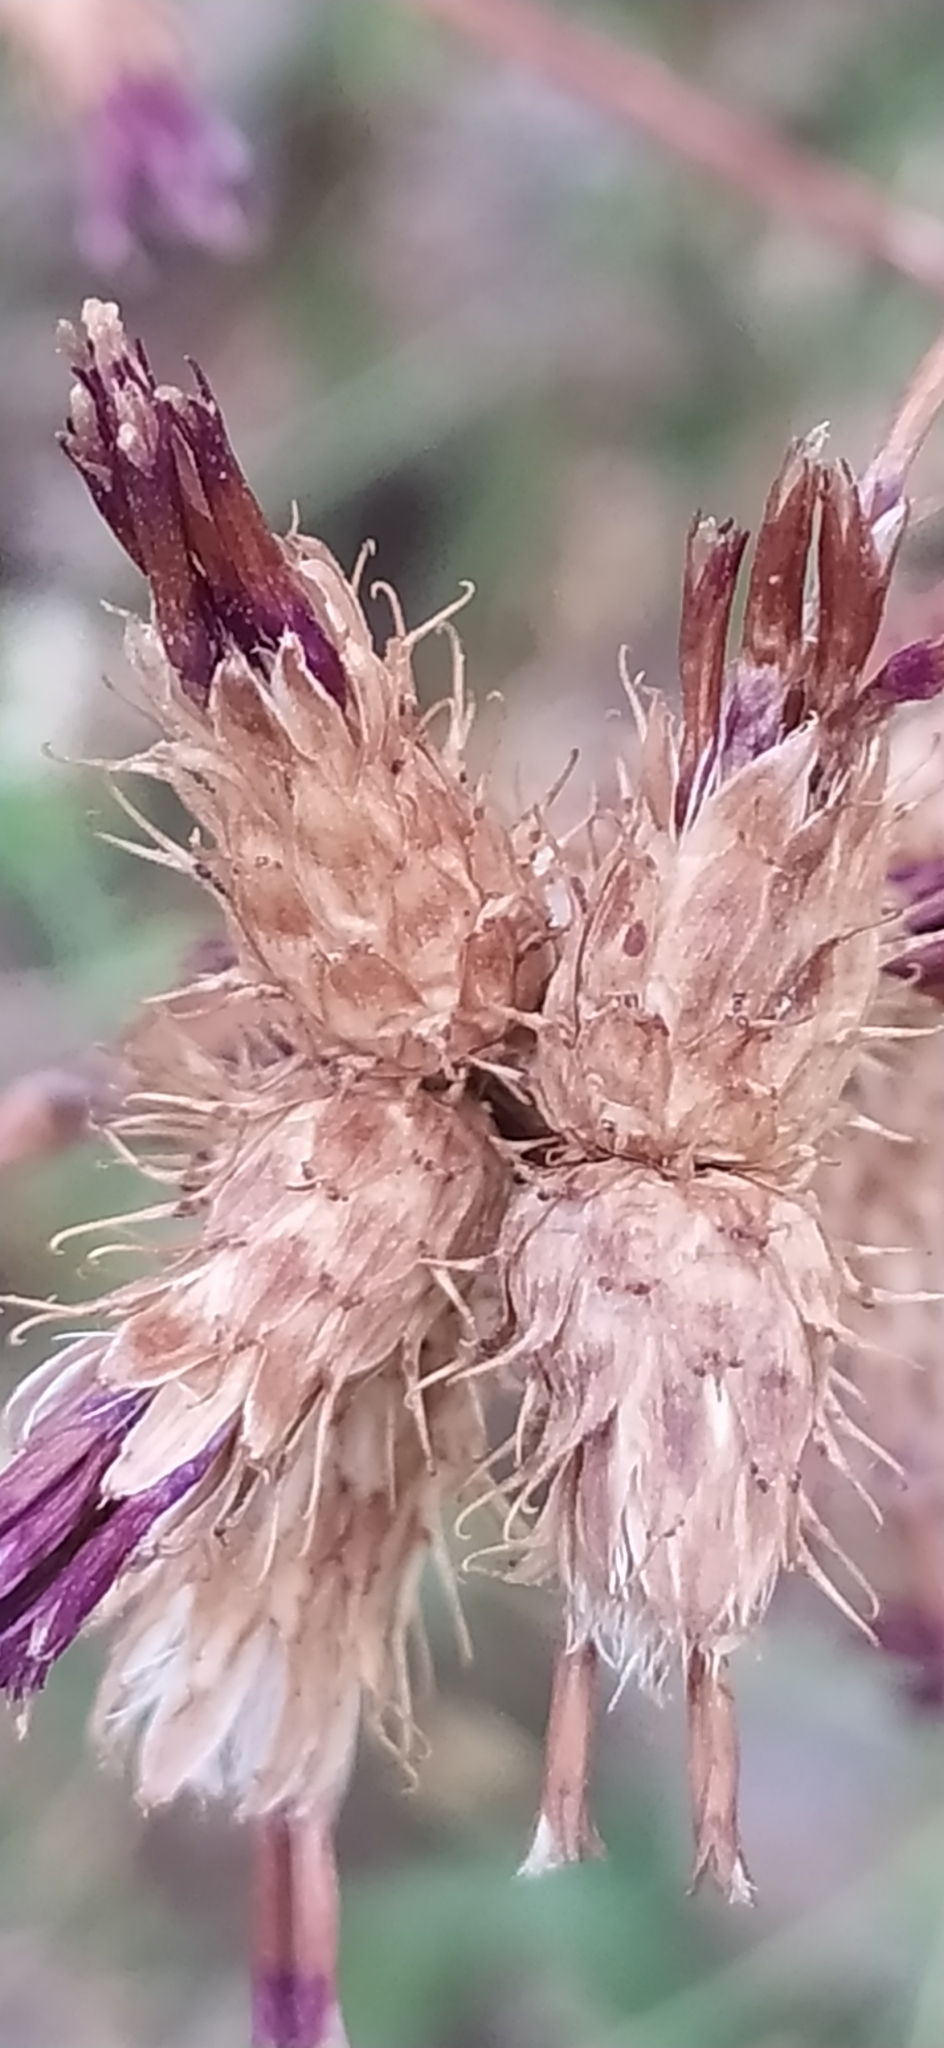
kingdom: Plantae
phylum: Tracheophyta
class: Magnoliopsida
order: Asterales
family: Asteraceae
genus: Arctium
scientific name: Arctium umbrosum
